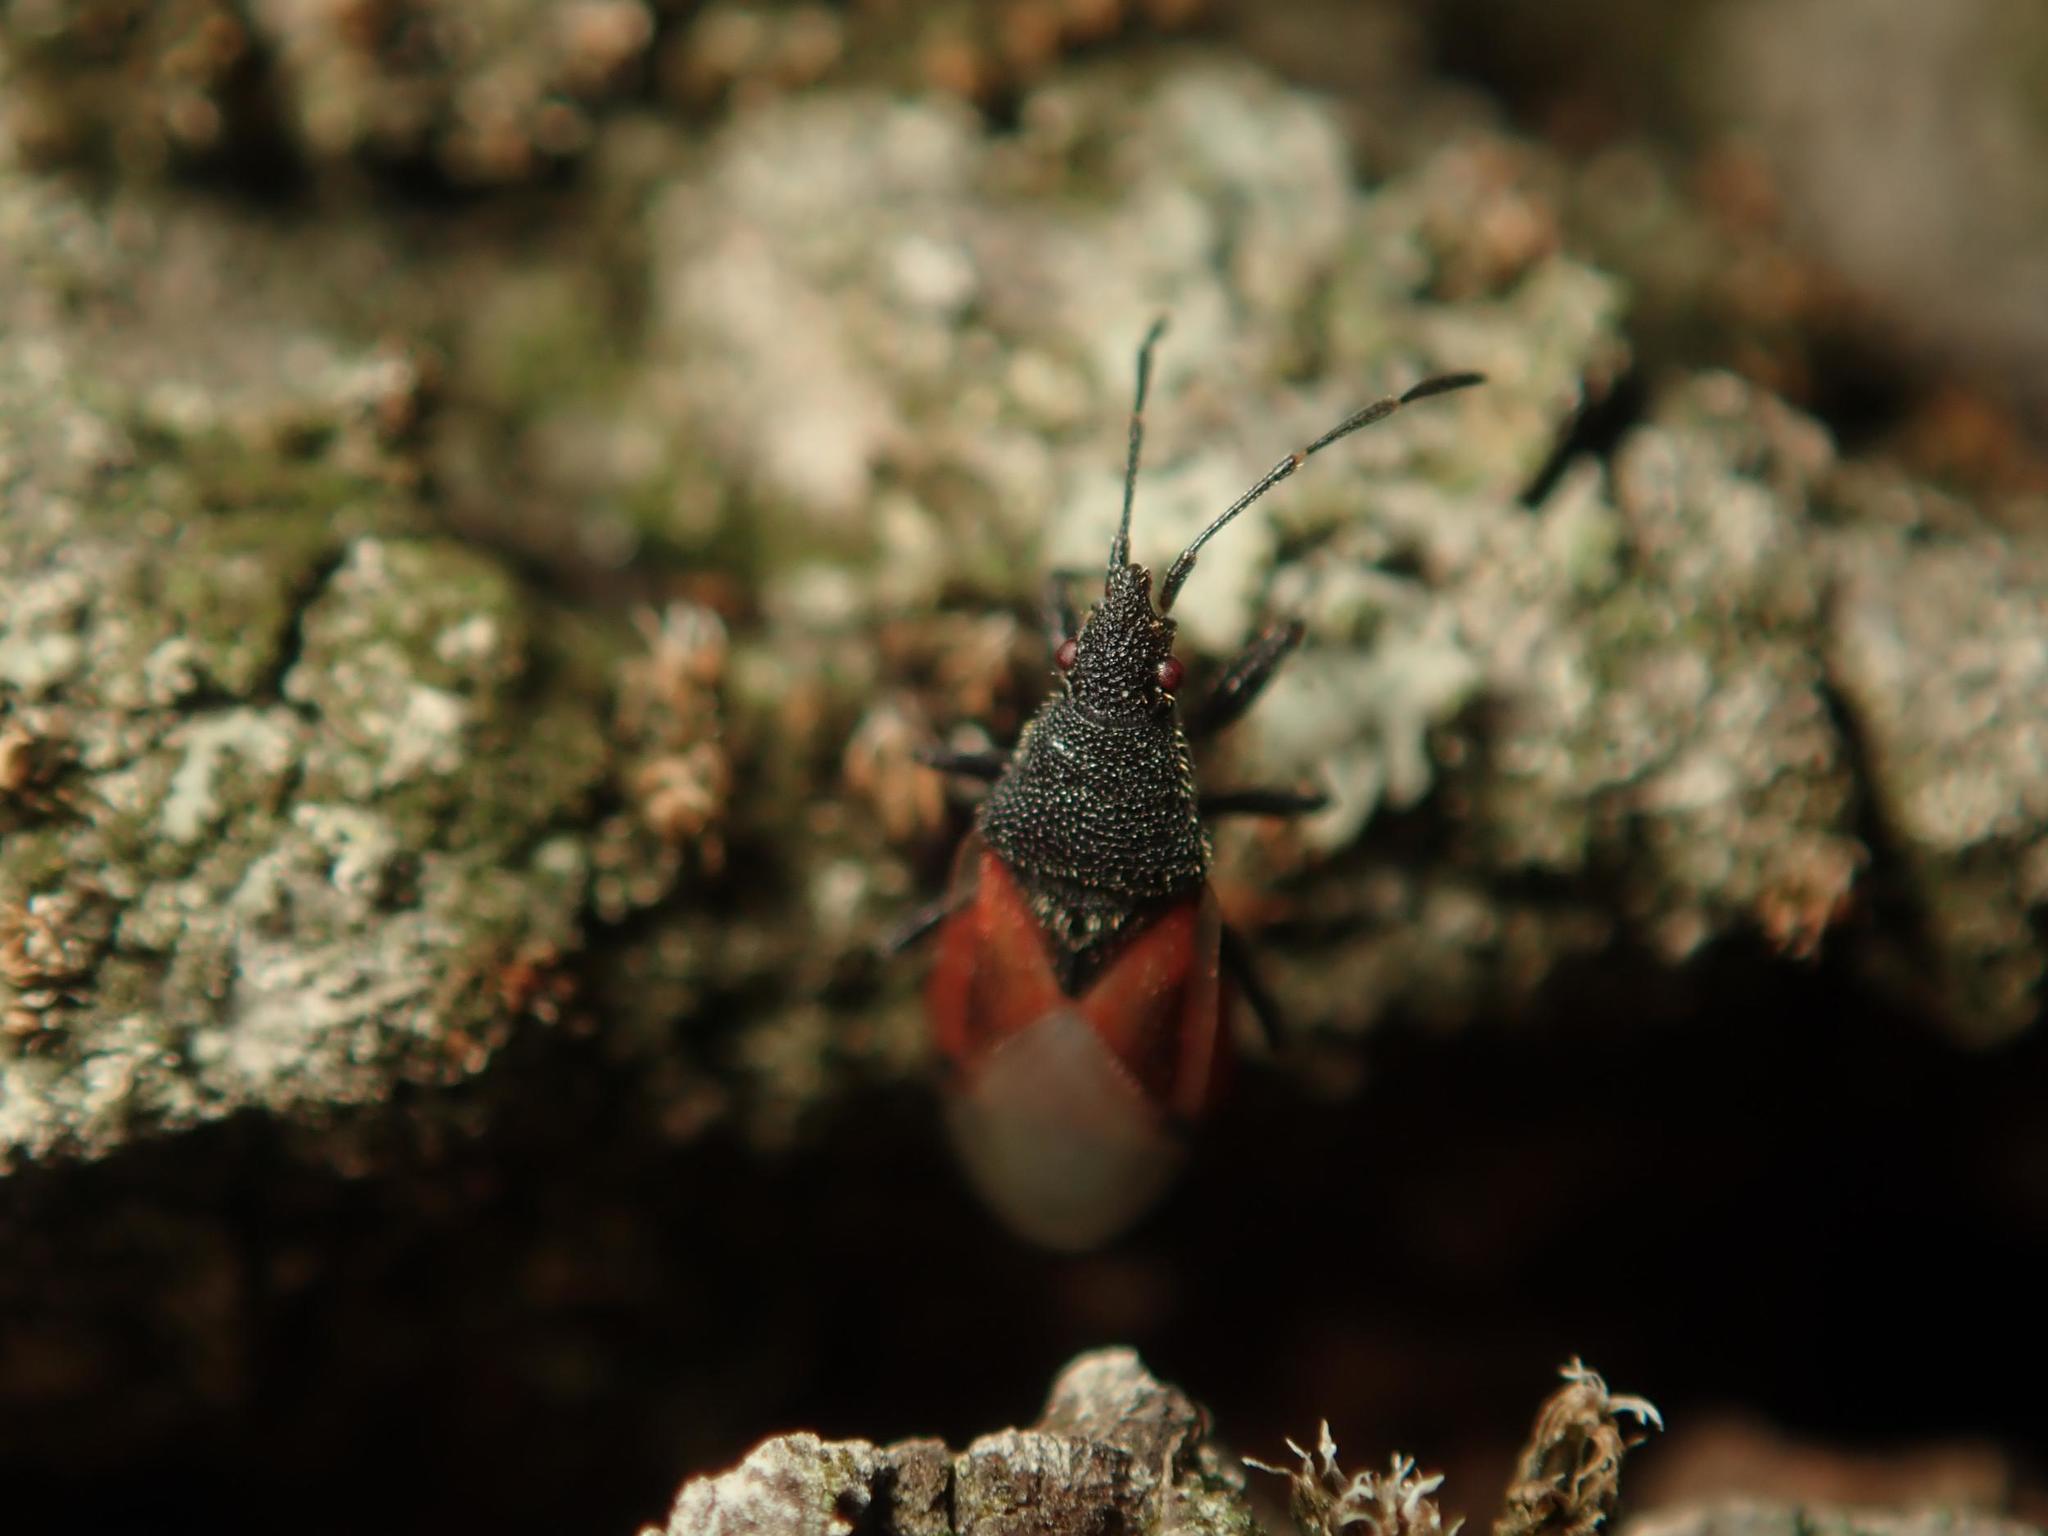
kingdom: Animalia
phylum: Arthropoda
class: Insecta
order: Hemiptera
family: Oxycarenidae
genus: Oxycarenus
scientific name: Oxycarenus lavaterae
